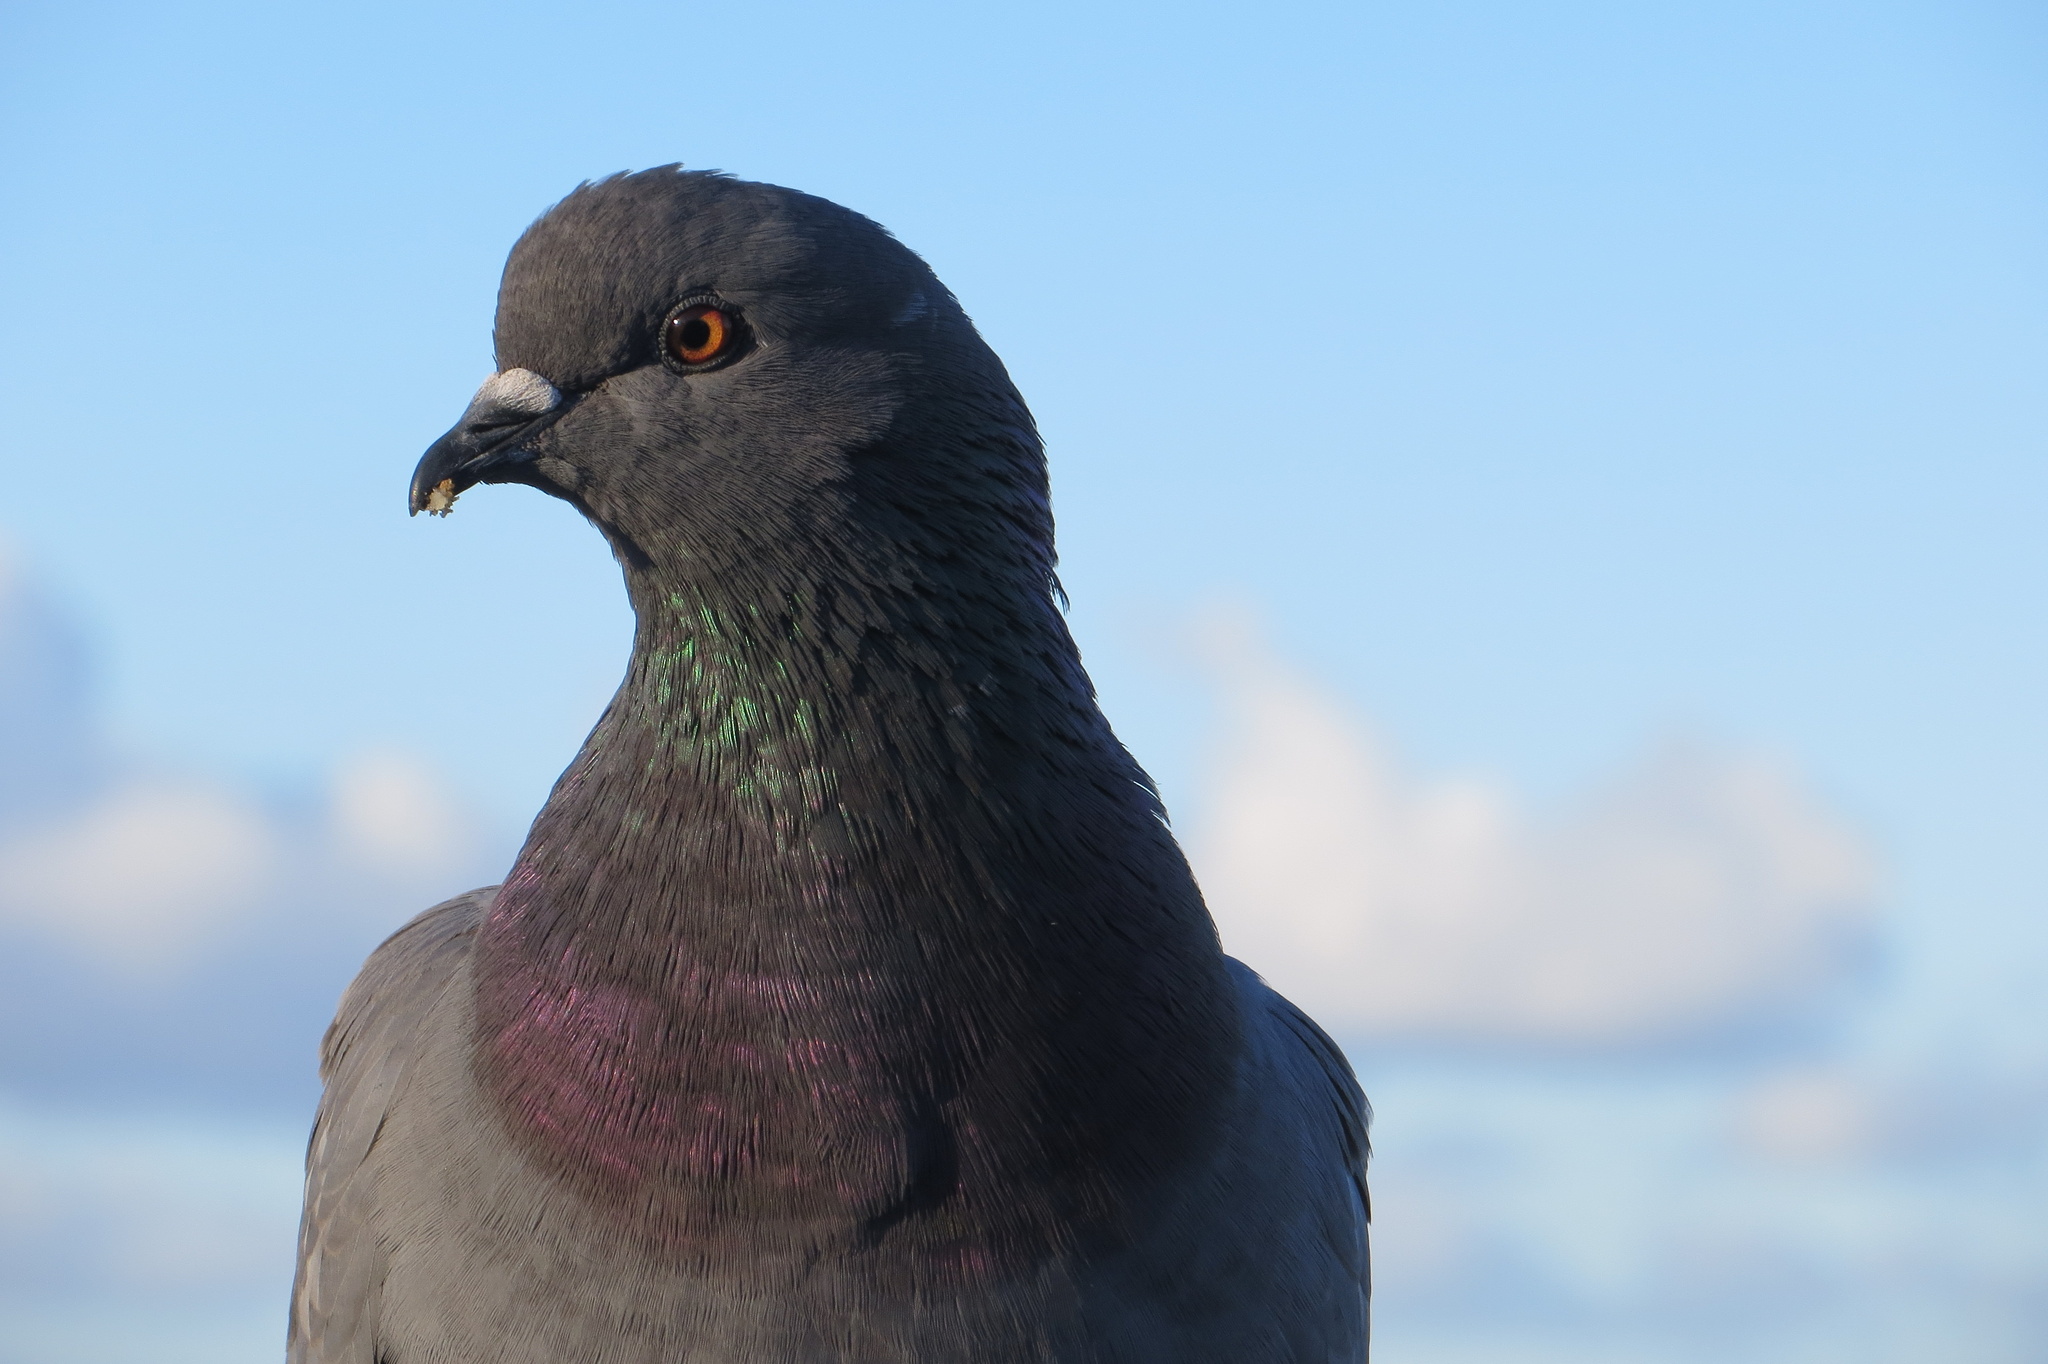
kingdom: Animalia
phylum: Chordata
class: Aves
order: Columbiformes
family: Columbidae
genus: Columba
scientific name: Columba livia
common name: Rock pigeon
